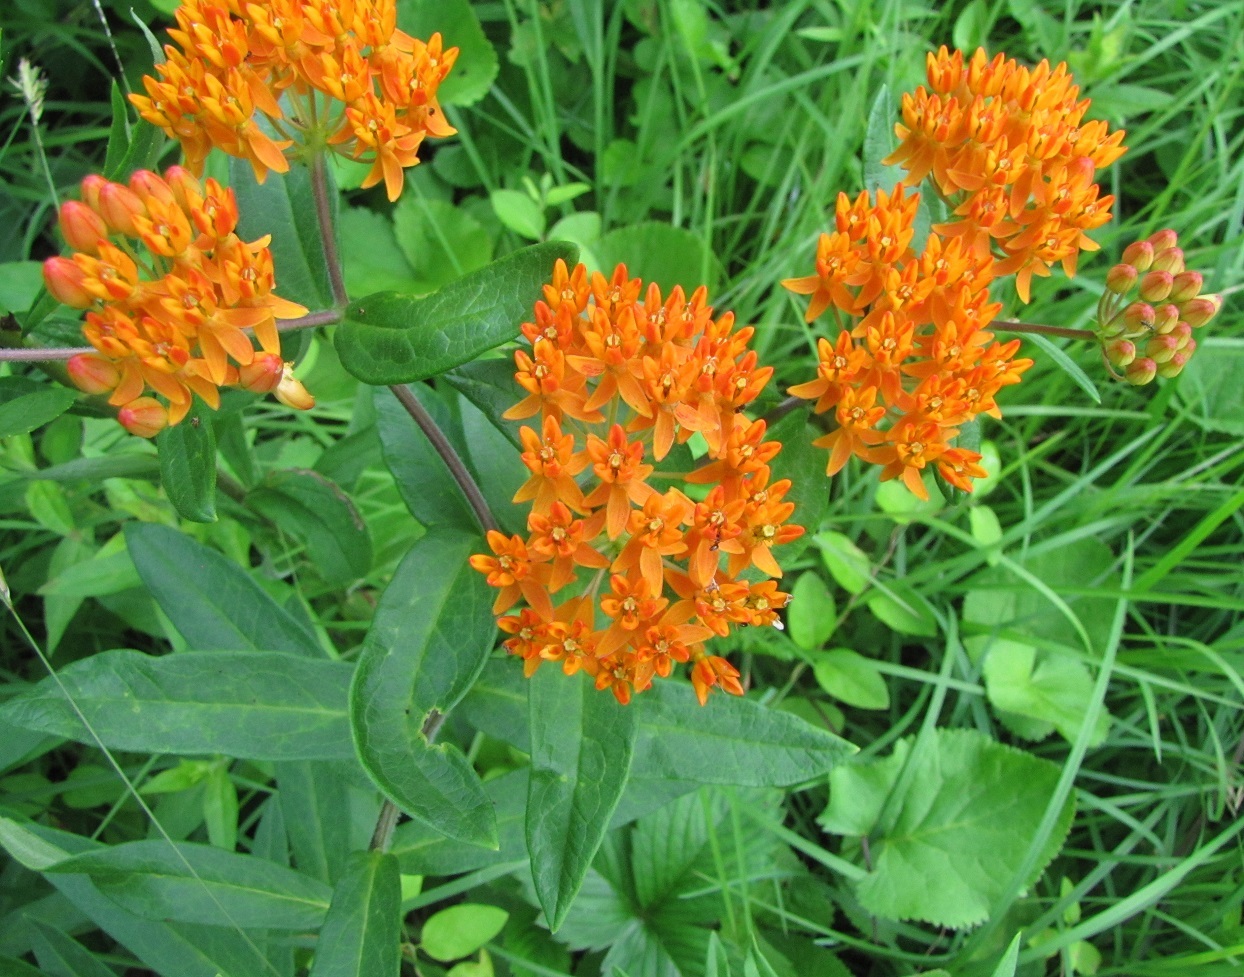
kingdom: Plantae
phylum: Tracheophyta
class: Magnoliopsida
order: Gentianales
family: Apocynaceae
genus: Asclepias
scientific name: Asclepias tuberosa
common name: Butterfly milkweed
